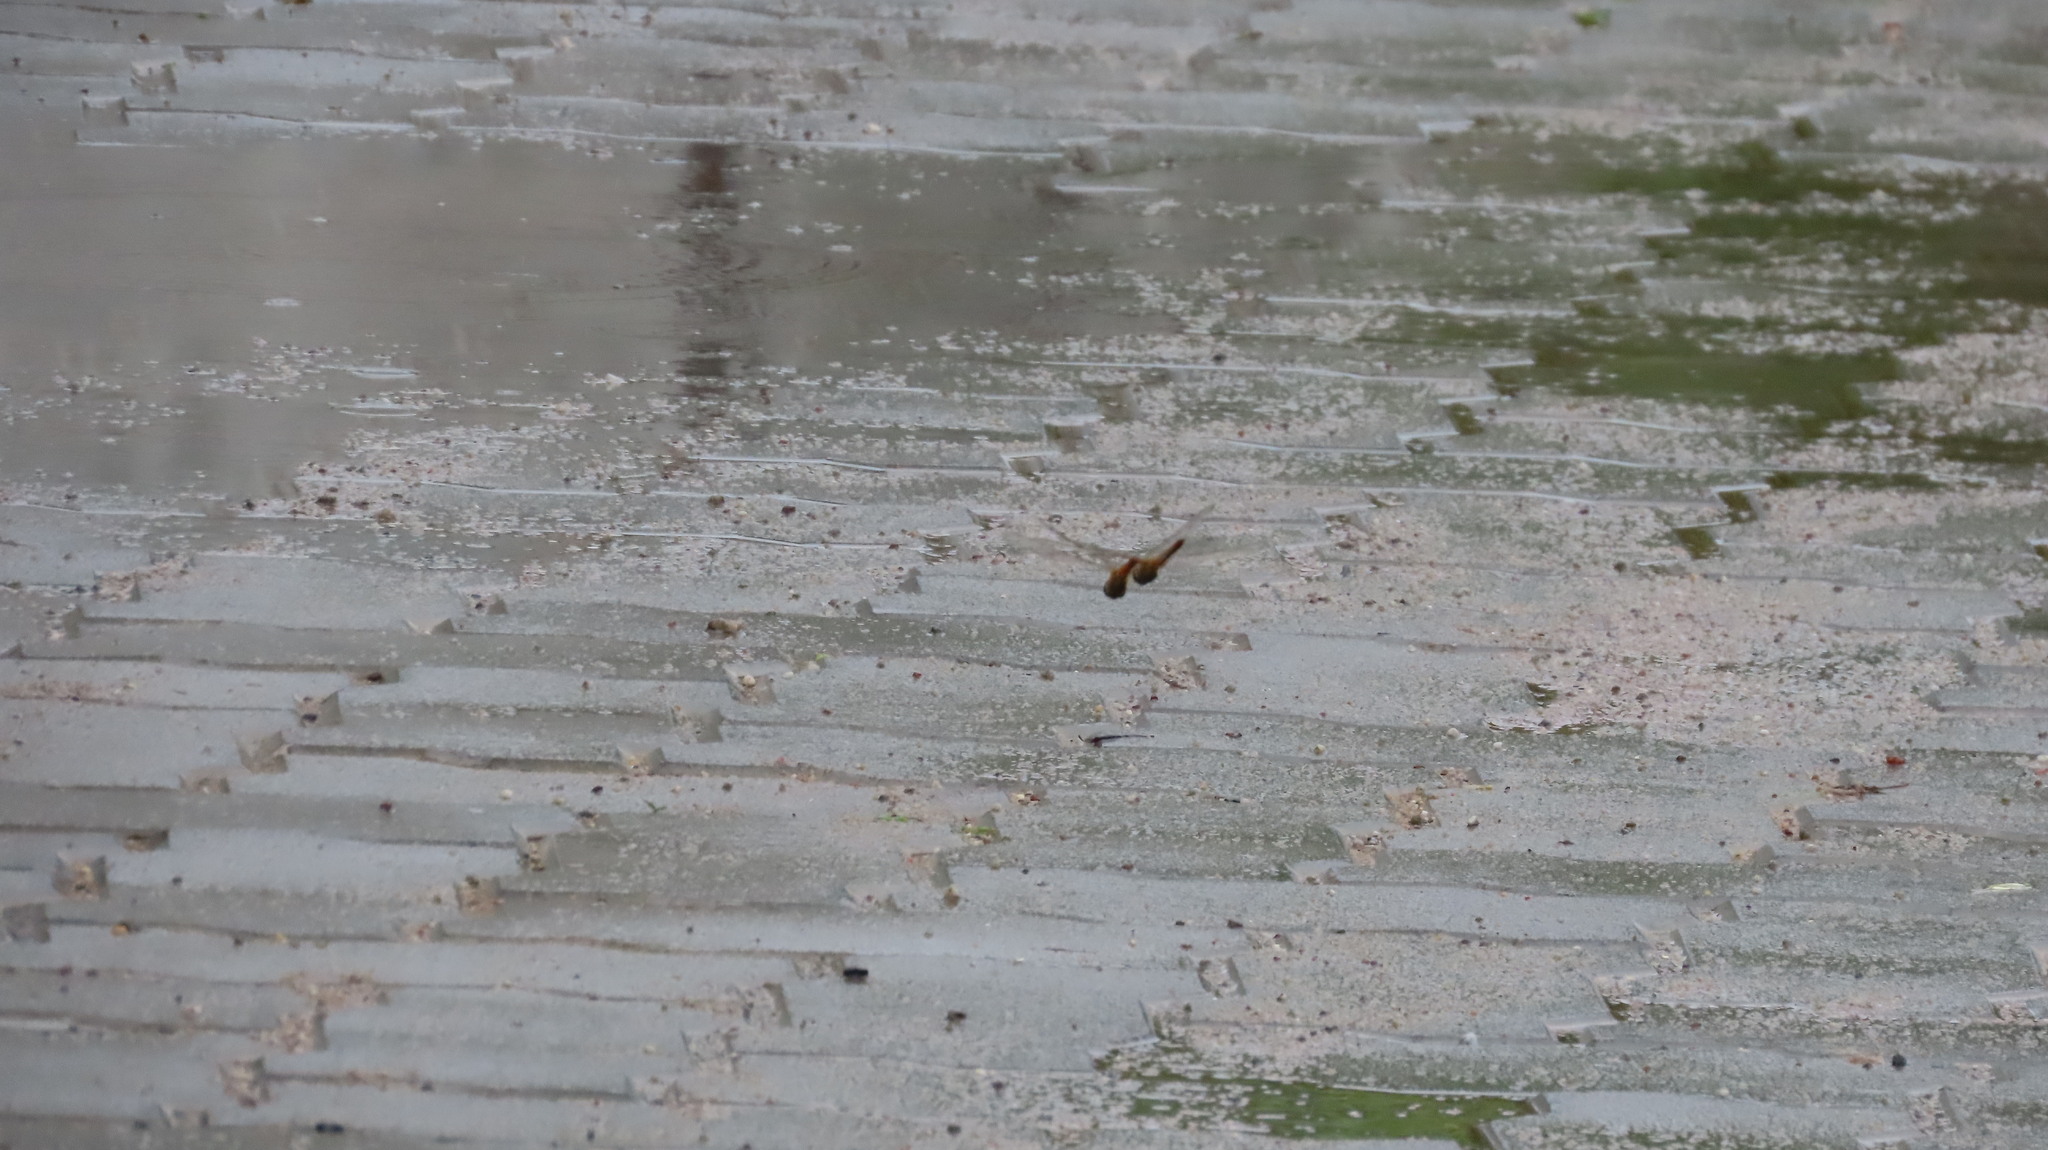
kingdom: Animalia
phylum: Arthropoda
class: Insecta
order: Odonata
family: Libellulidae
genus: Pantala
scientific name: Pantala flavescens
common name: Wandering glider
